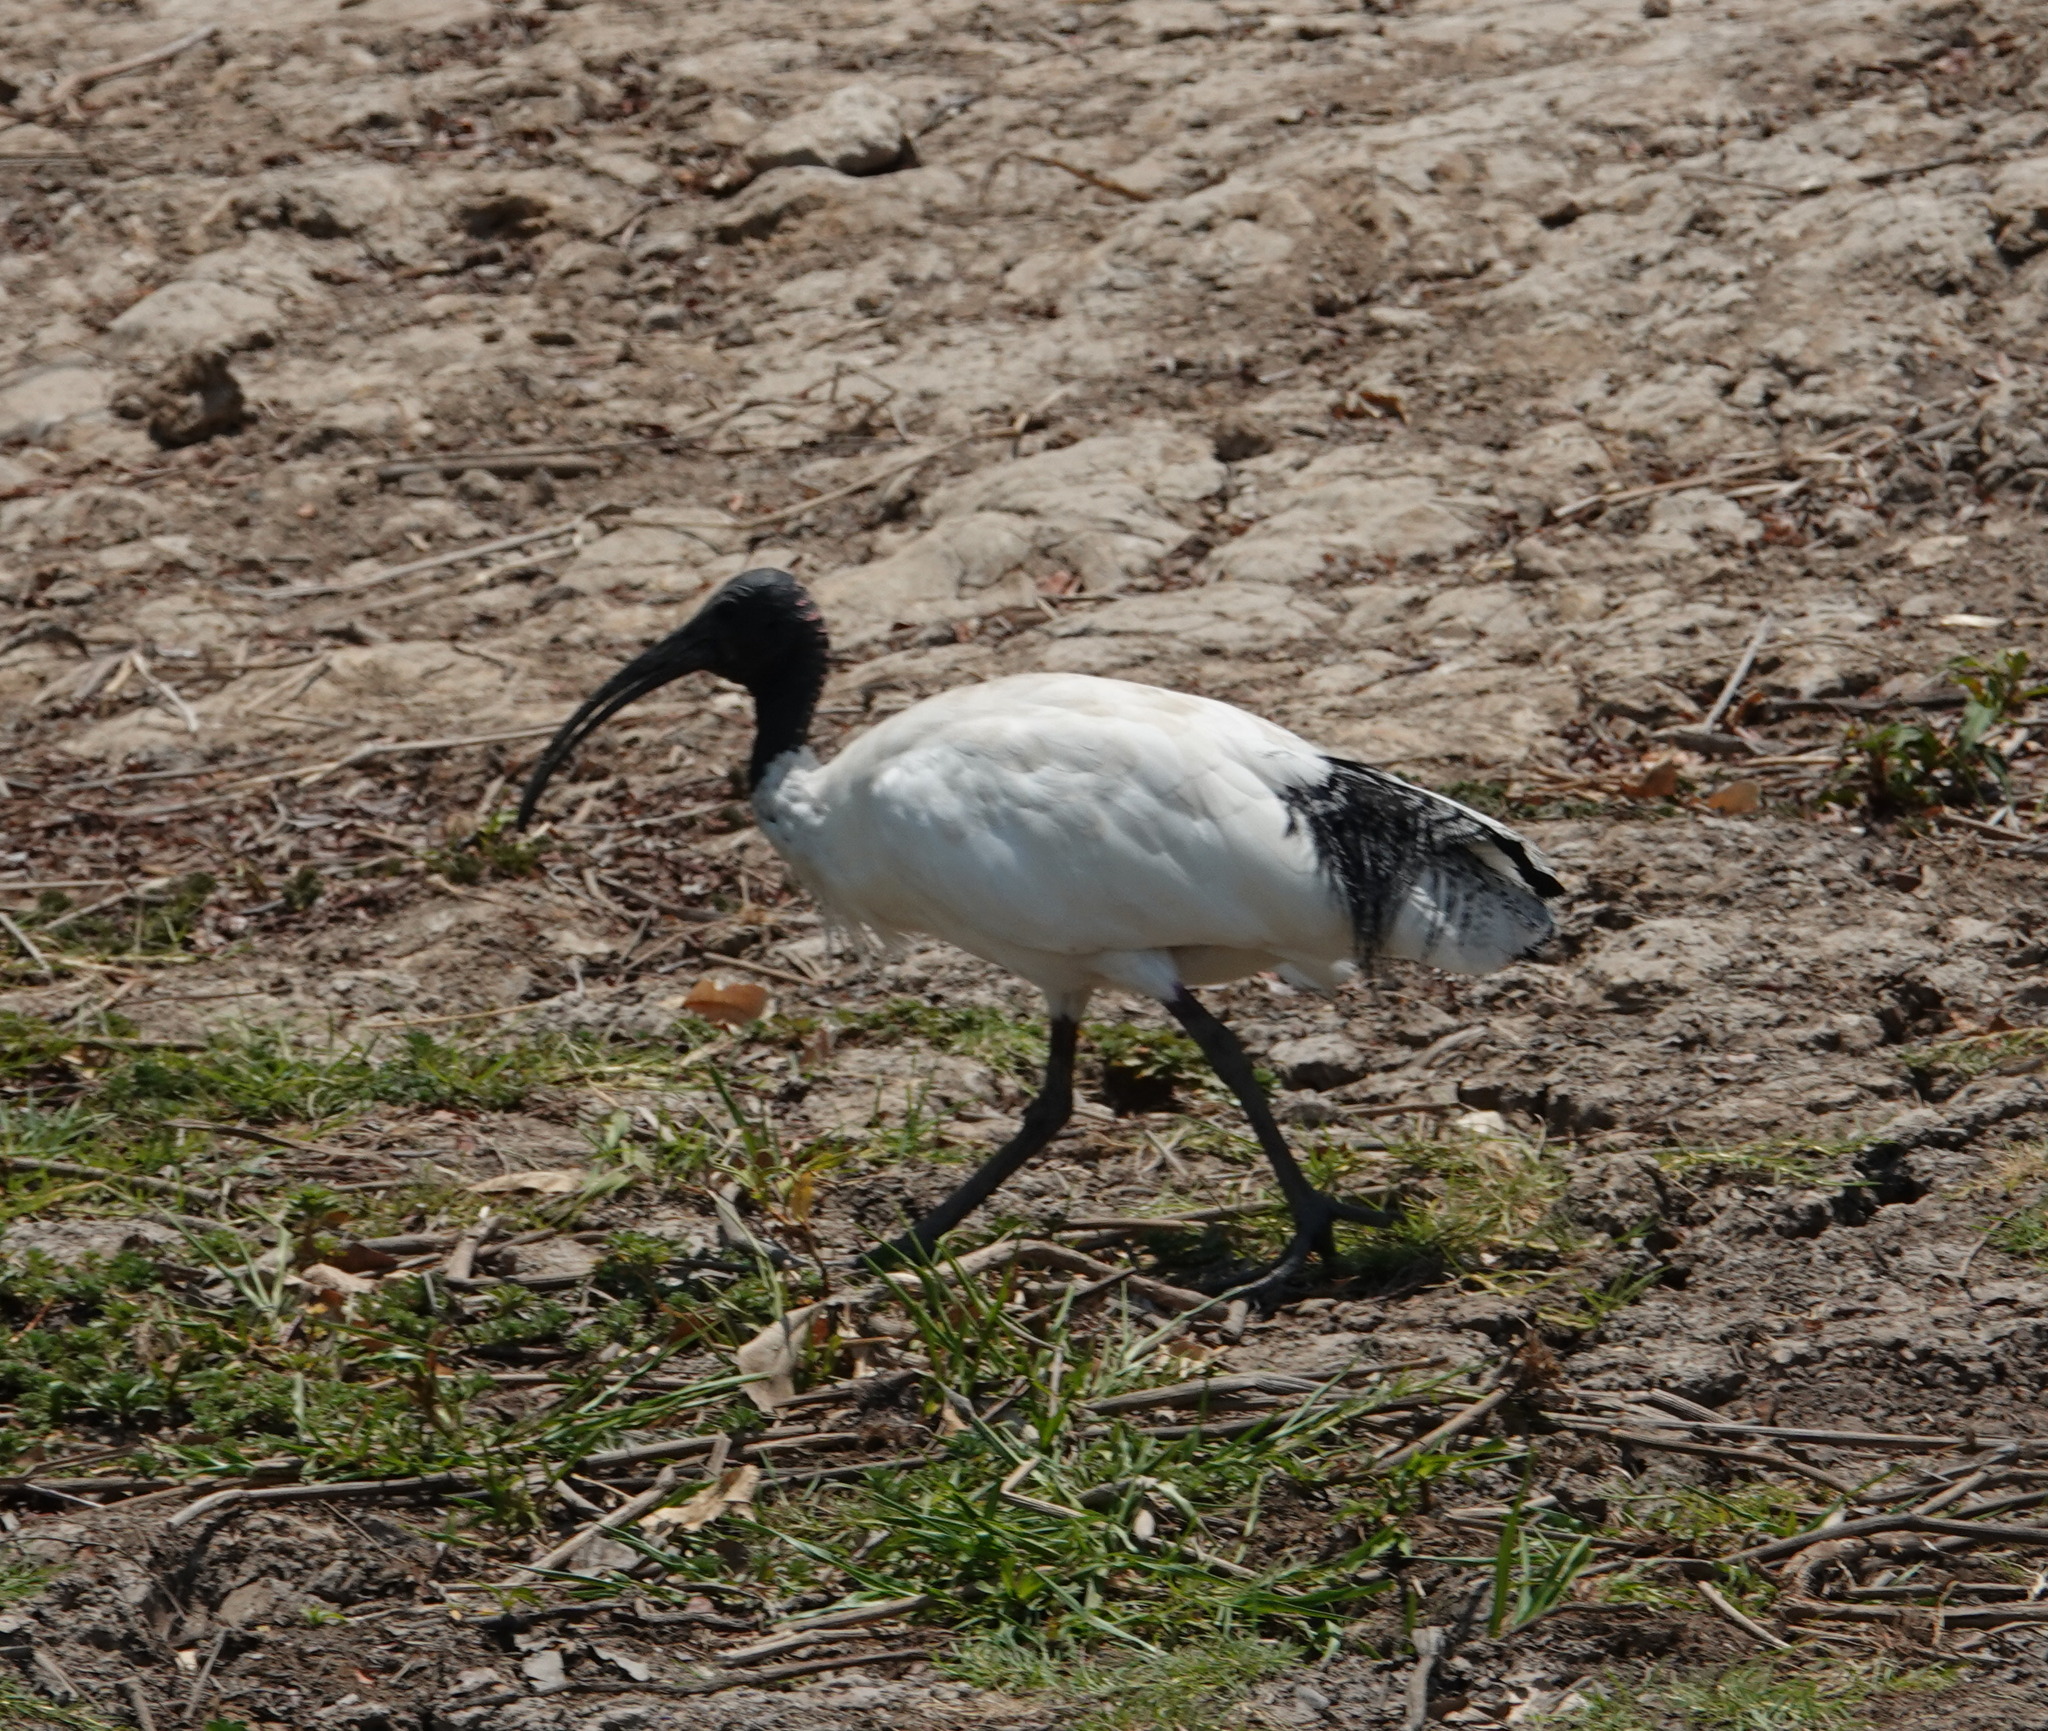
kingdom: Animalia
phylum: Chordata
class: Aves
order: Pelecaniformes
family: Threskiornithidae
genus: Threskiornis
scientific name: Threskiornis molucca
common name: Australian white ibis
